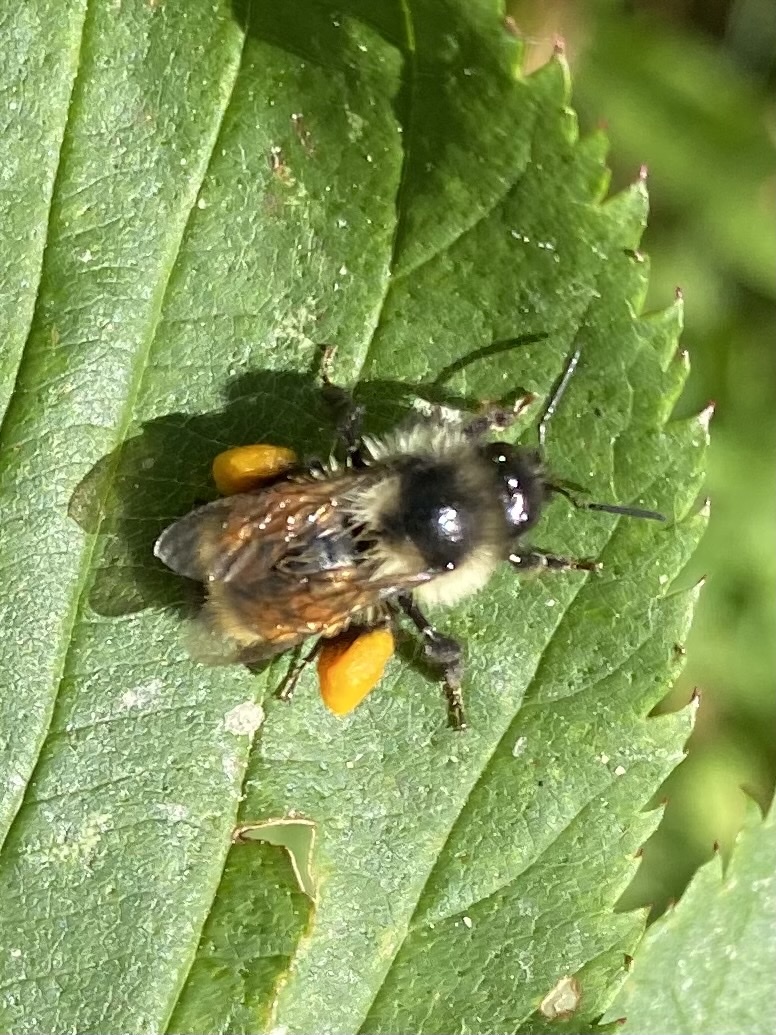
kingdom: Animalia
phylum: Arthropoda
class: Insecta
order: Hymenoptera
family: Apidae
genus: Bombus
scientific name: Bombus ternarius
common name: Tri-colored bumble bee
